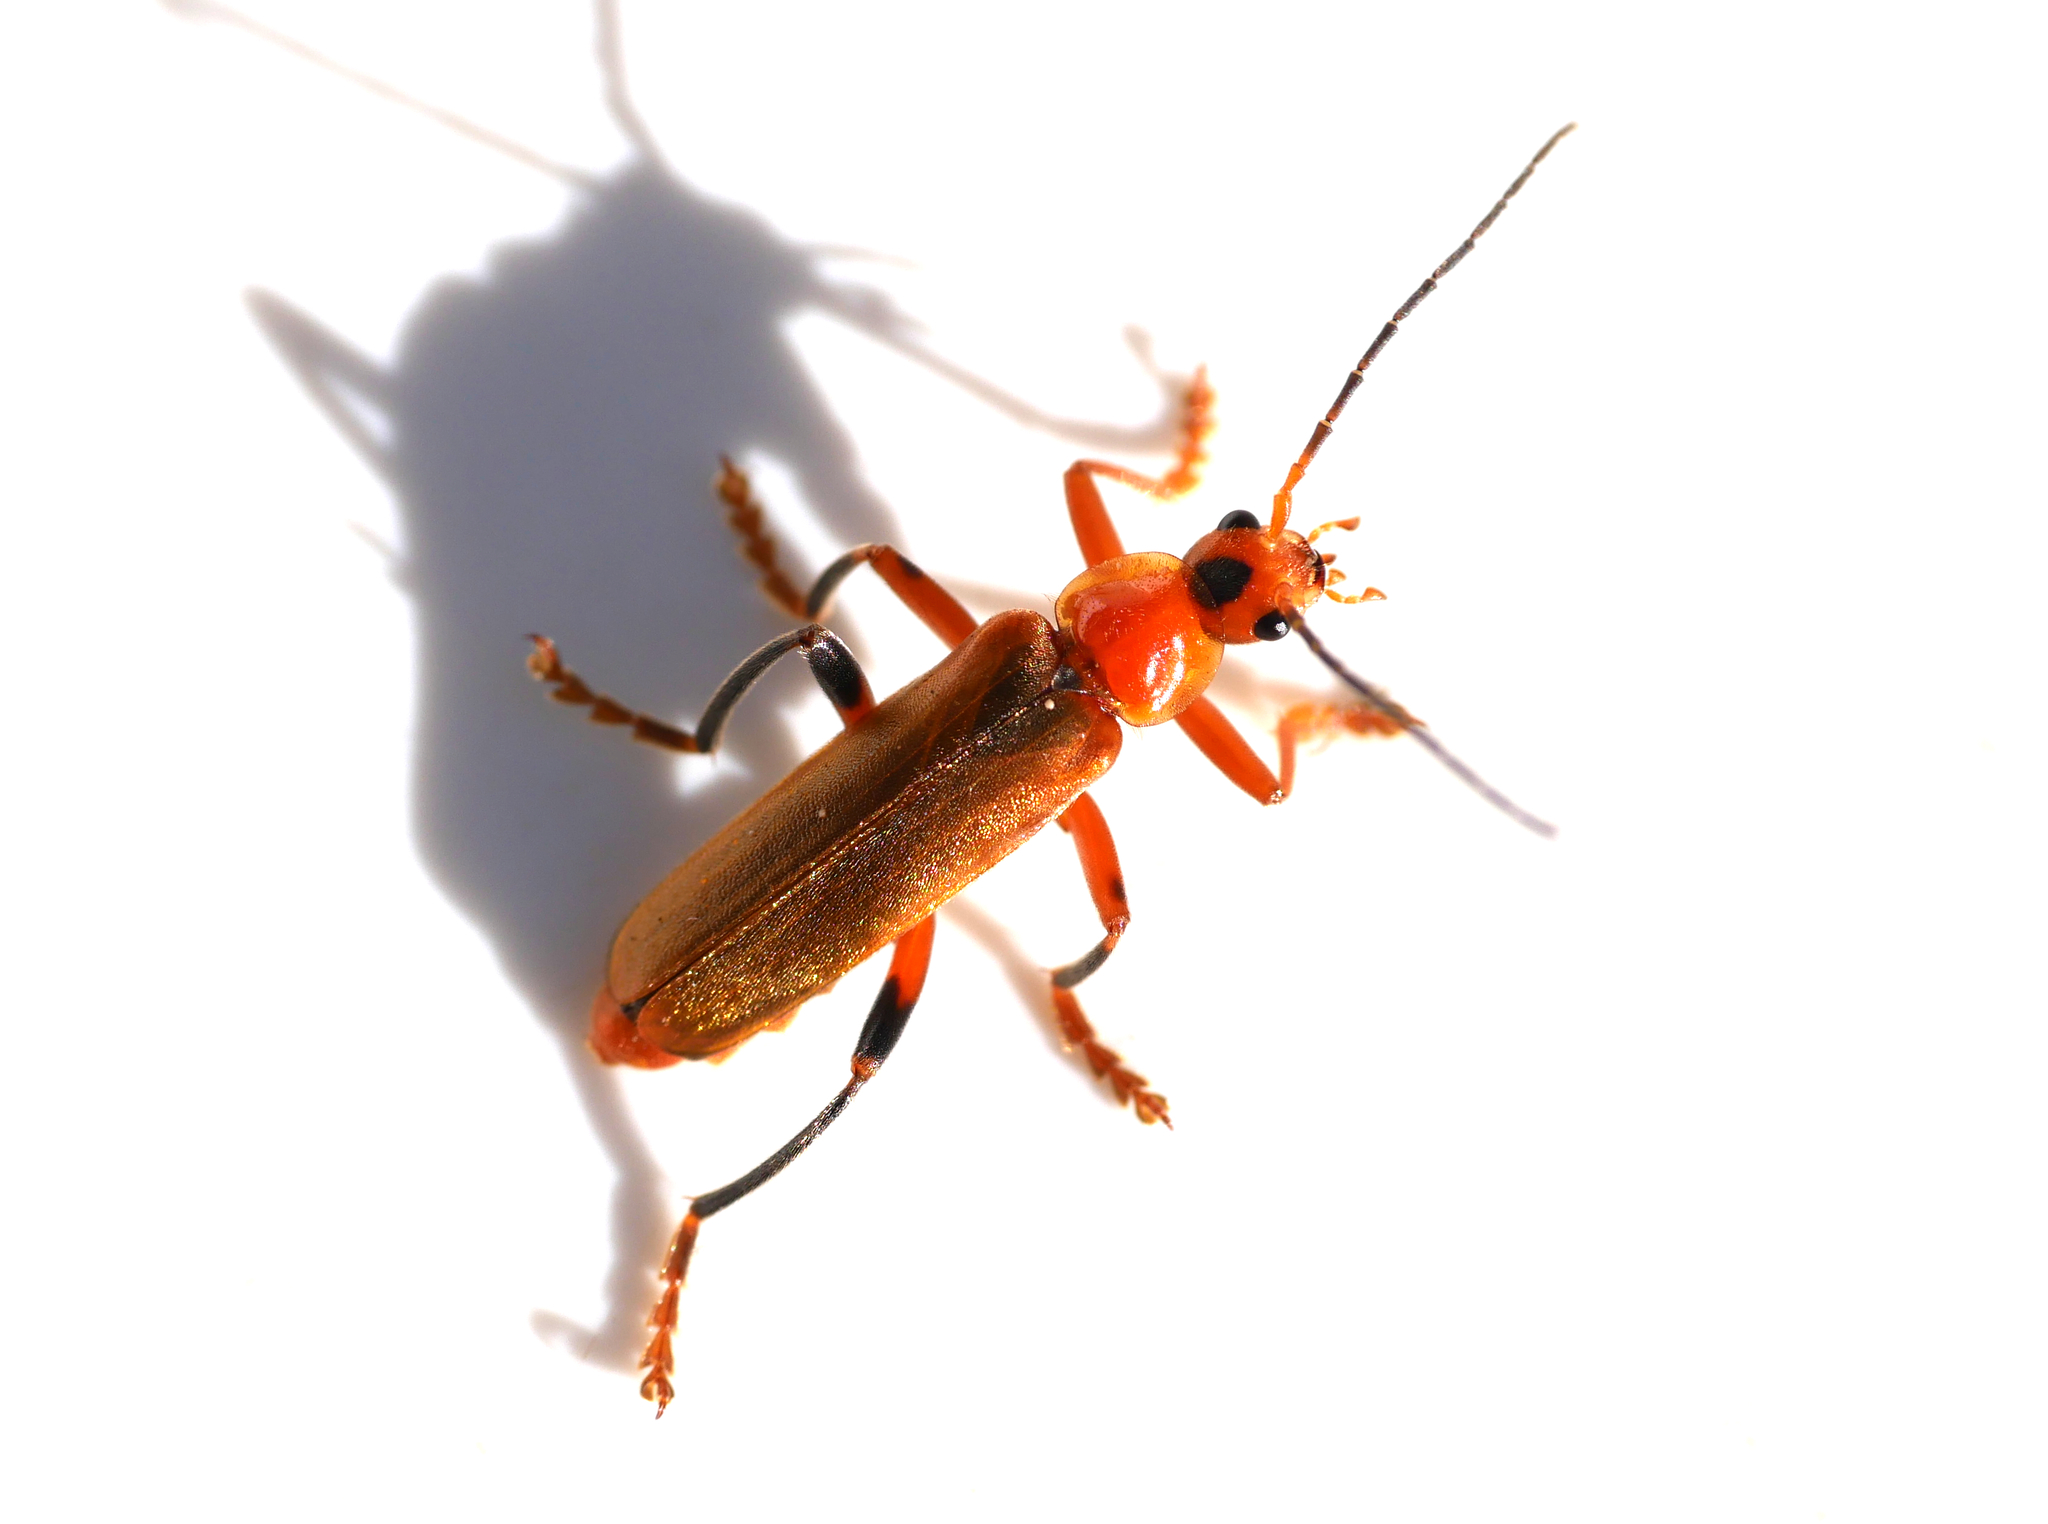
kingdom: Animalia
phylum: Arthropoda
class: Insecta
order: Coleoptera
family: Cantharidae
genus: Cantharis
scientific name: Cantharis livida
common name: Livid soldier beetle
